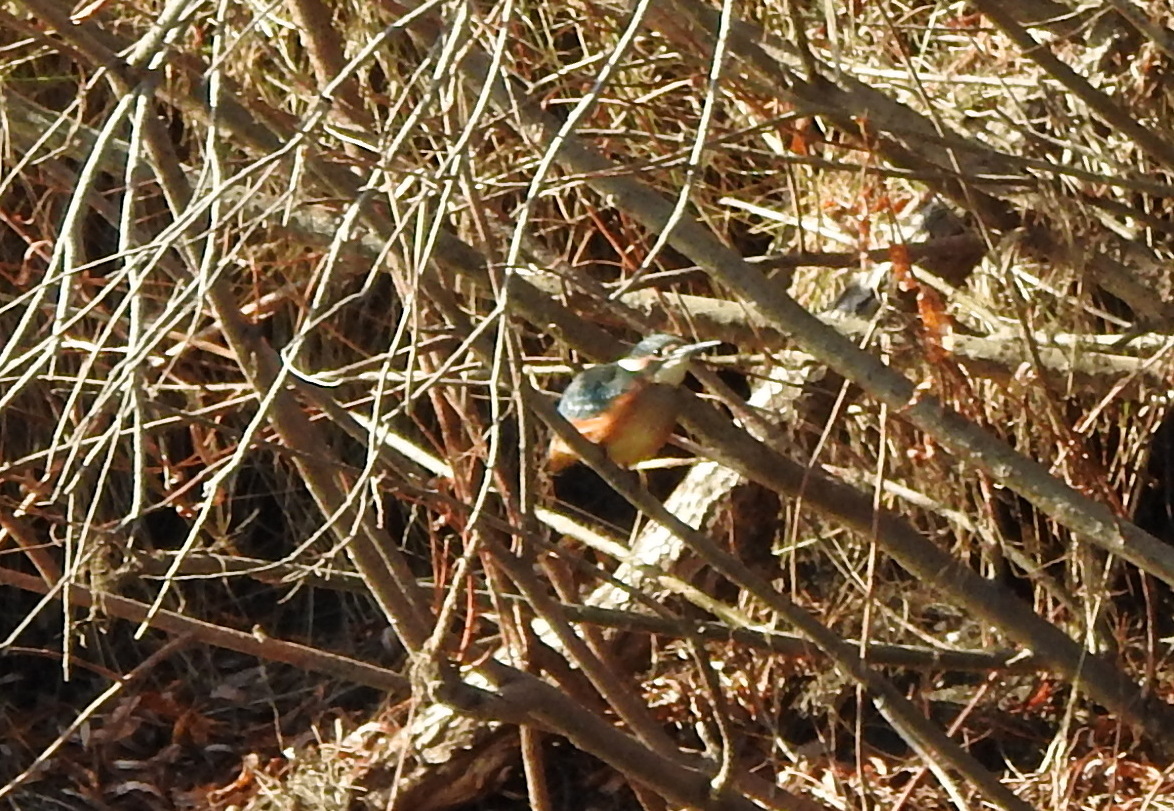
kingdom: Animalia
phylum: Chordata
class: Aves
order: Coraciiformes
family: Alcedinidae
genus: Alcedo
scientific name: Alcedo atthis
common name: Common kingfisher
